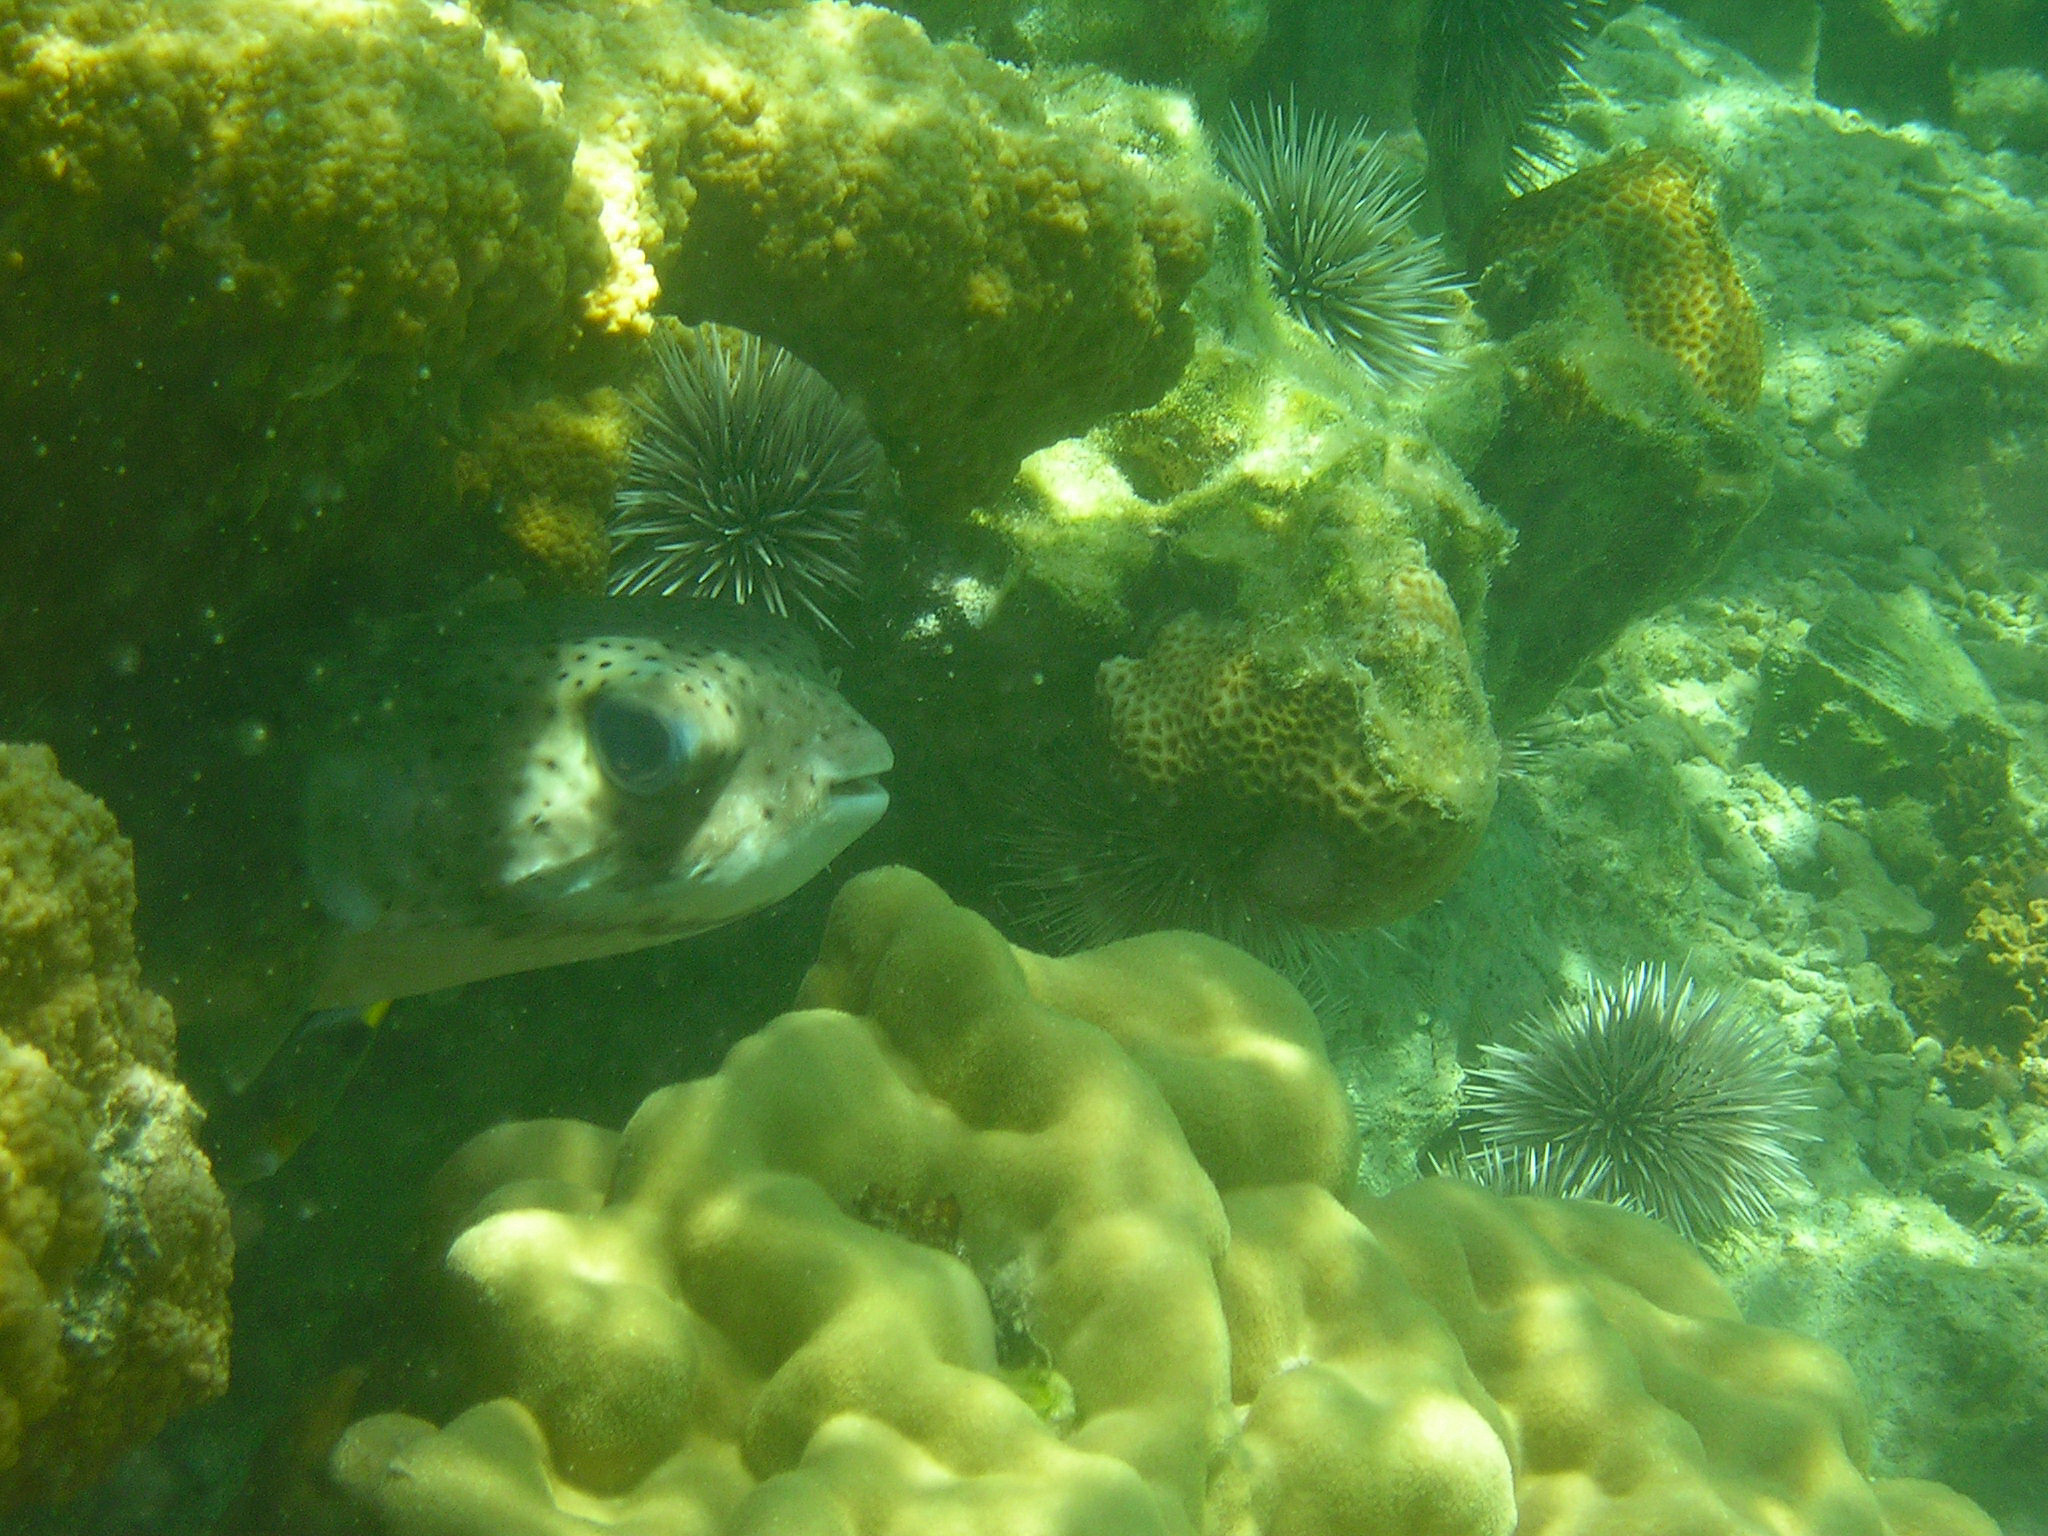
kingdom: Animalia
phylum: Chordata
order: Tetraodontiformes
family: Diodontidae
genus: Diodon
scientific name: Diodon hystrix
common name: Giant porcupinefish
